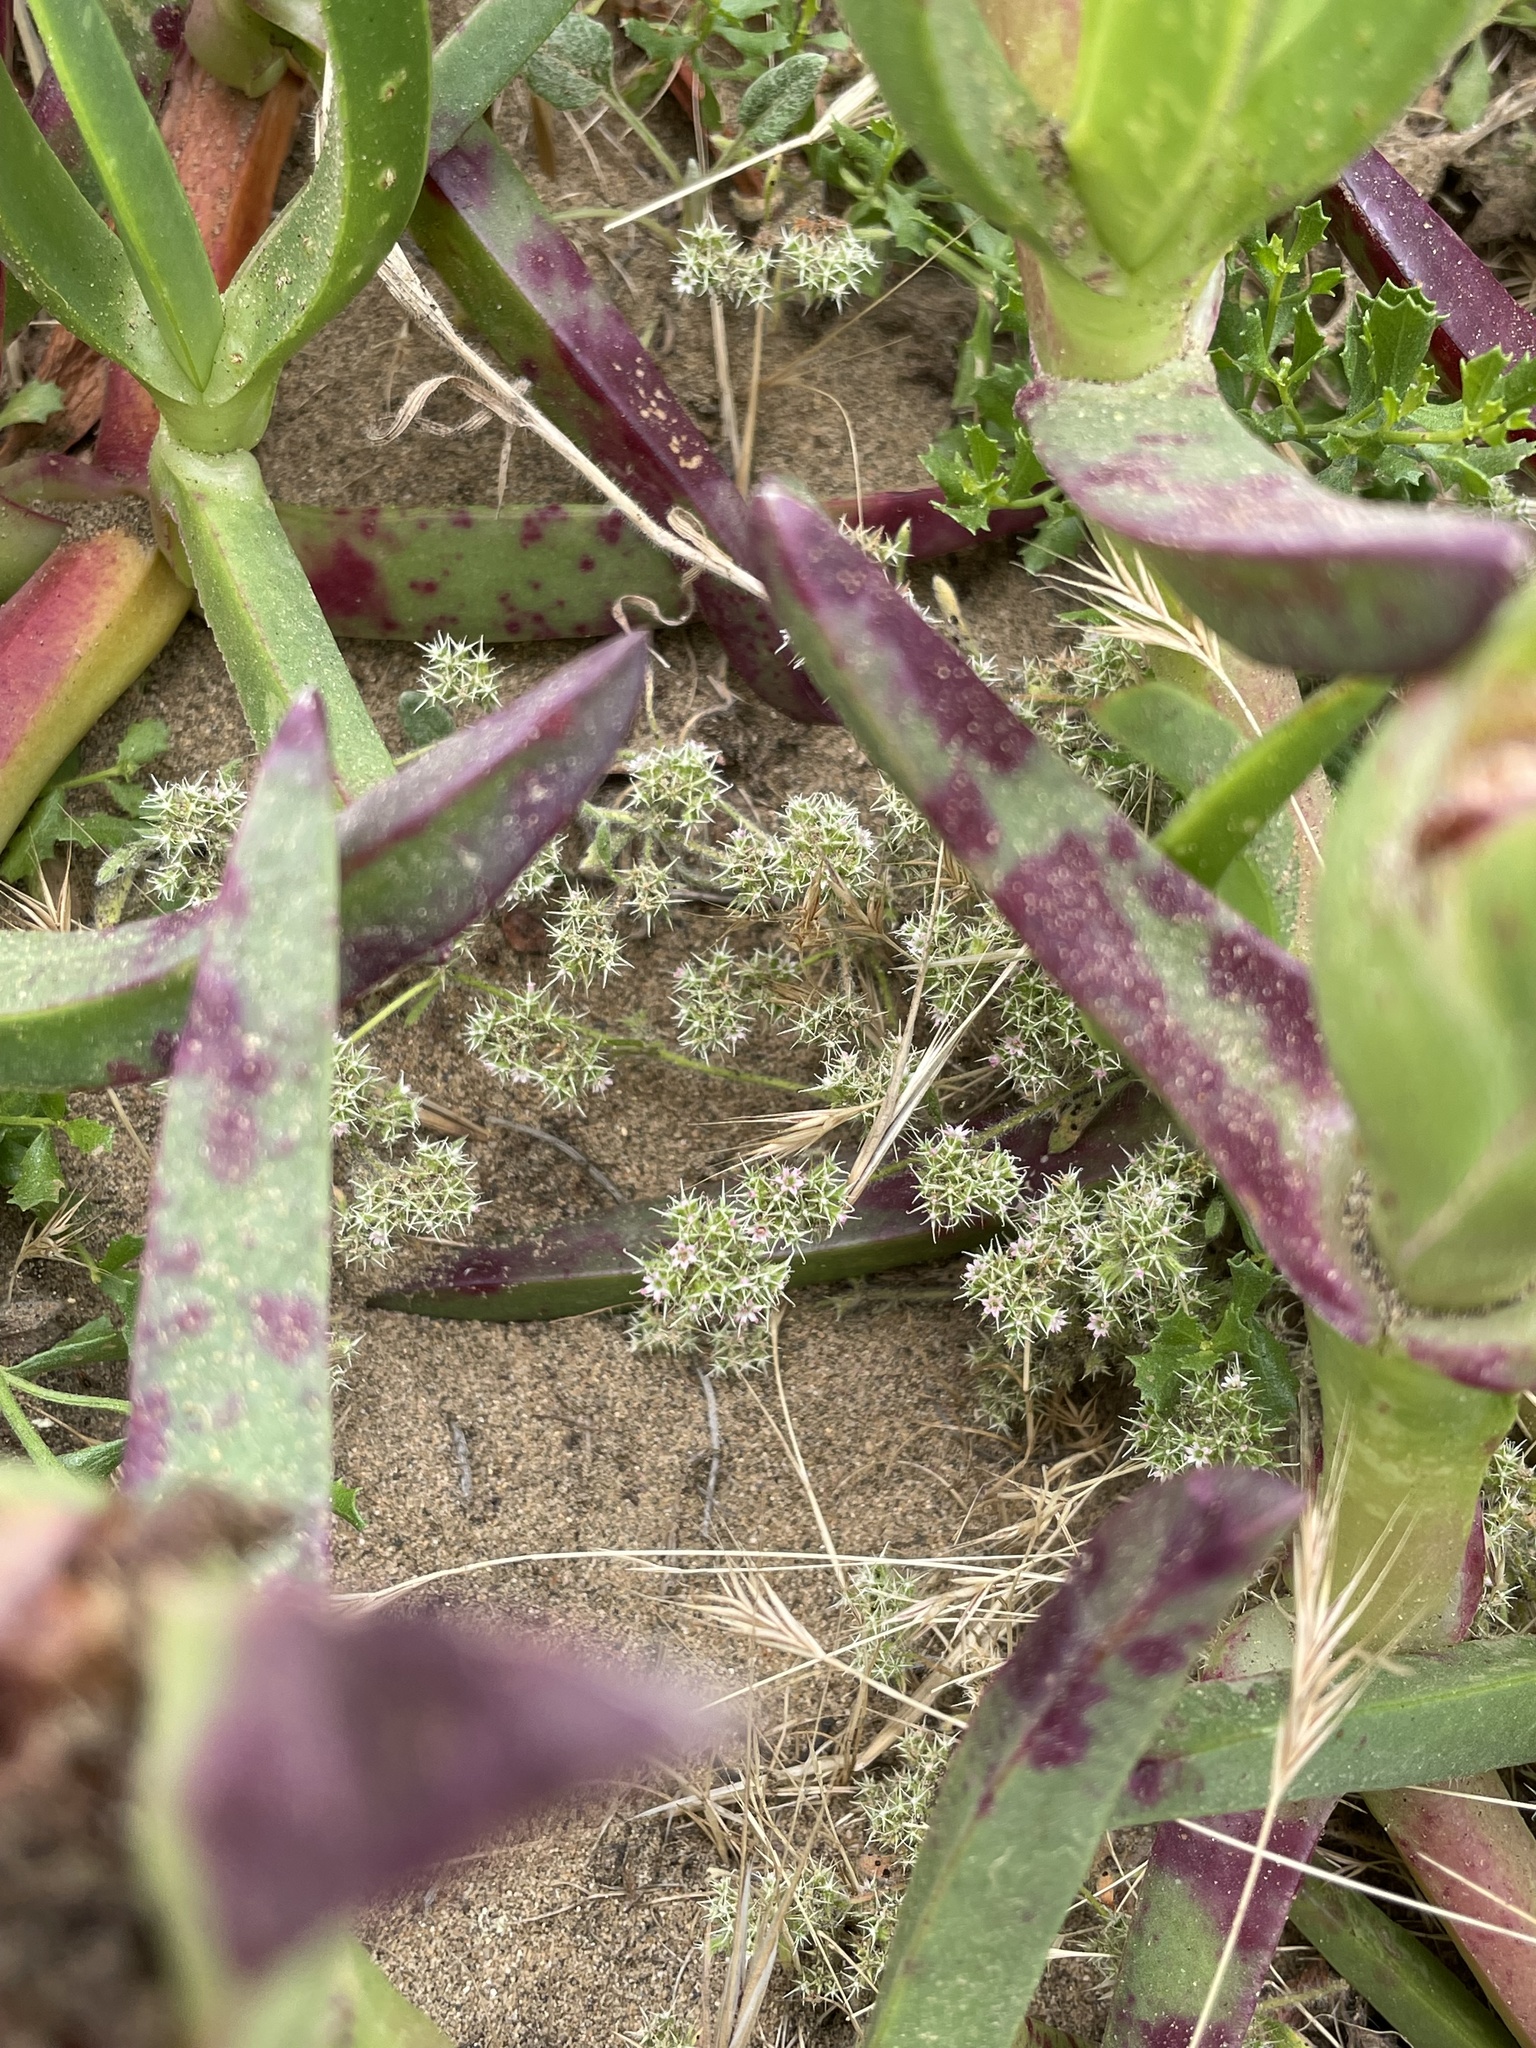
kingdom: Plantae
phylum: Tracheophyta
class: Magnoliopsida
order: Caryophyllales
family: Polygonaceae
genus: Chorizanthe
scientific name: Chorizanthe cuspidata
